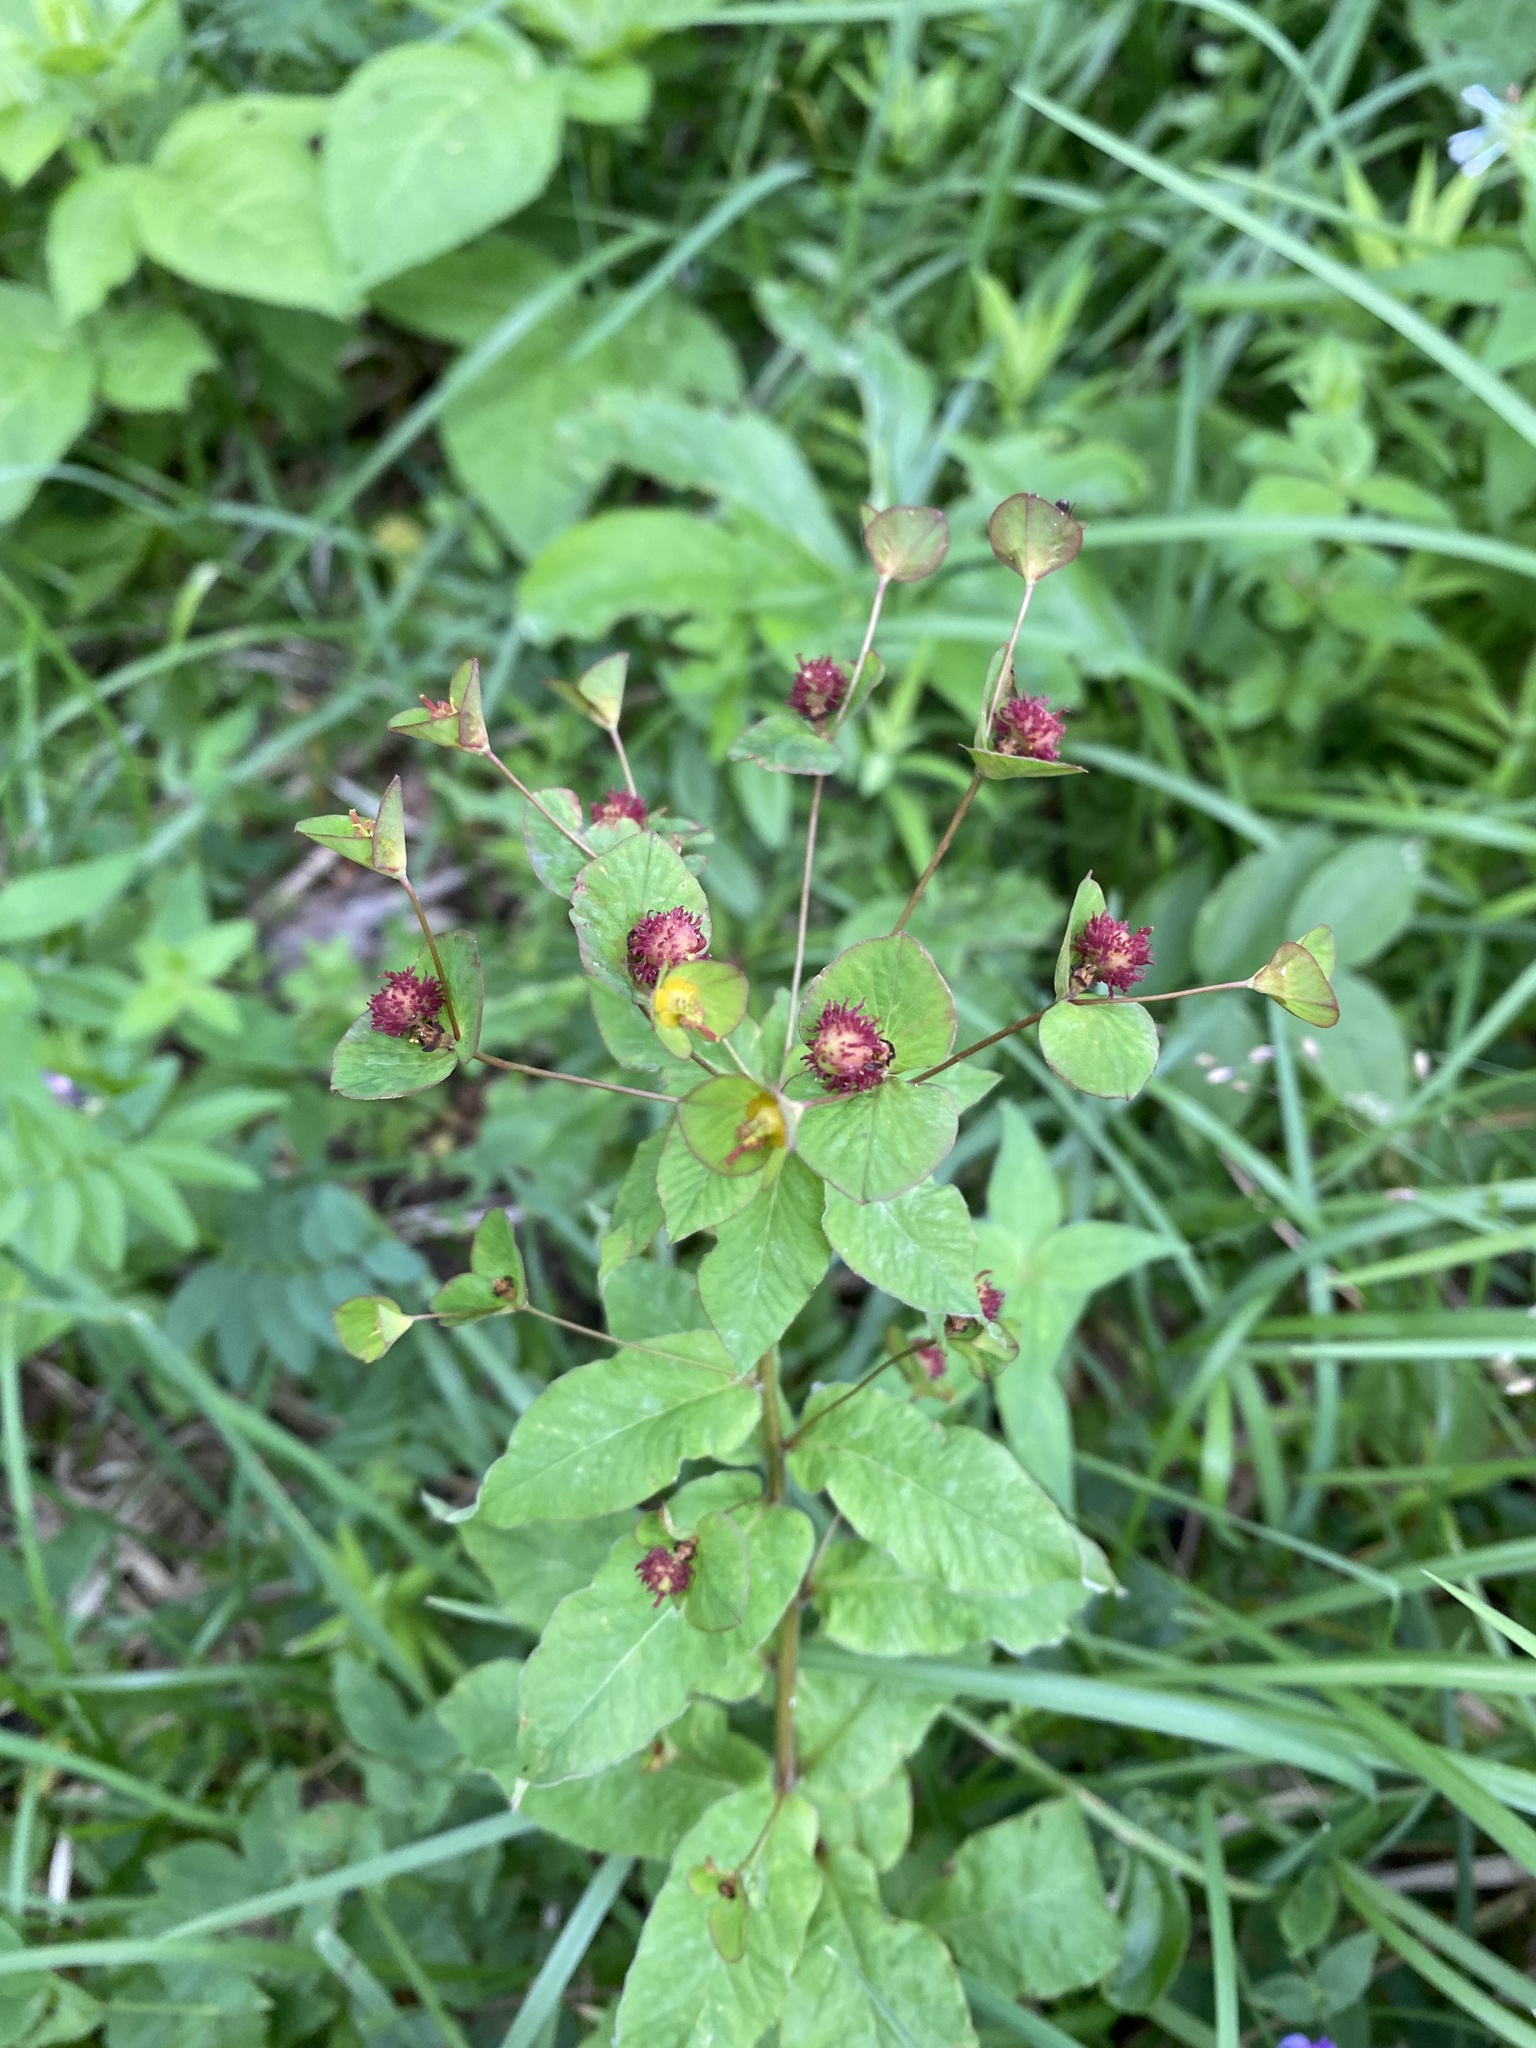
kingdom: Plantae
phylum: Tracheophyta
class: Magnoliopsida
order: Malpighiales
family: Euphorbiaceae
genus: Euphorbia
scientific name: Euphorbia squamosa
